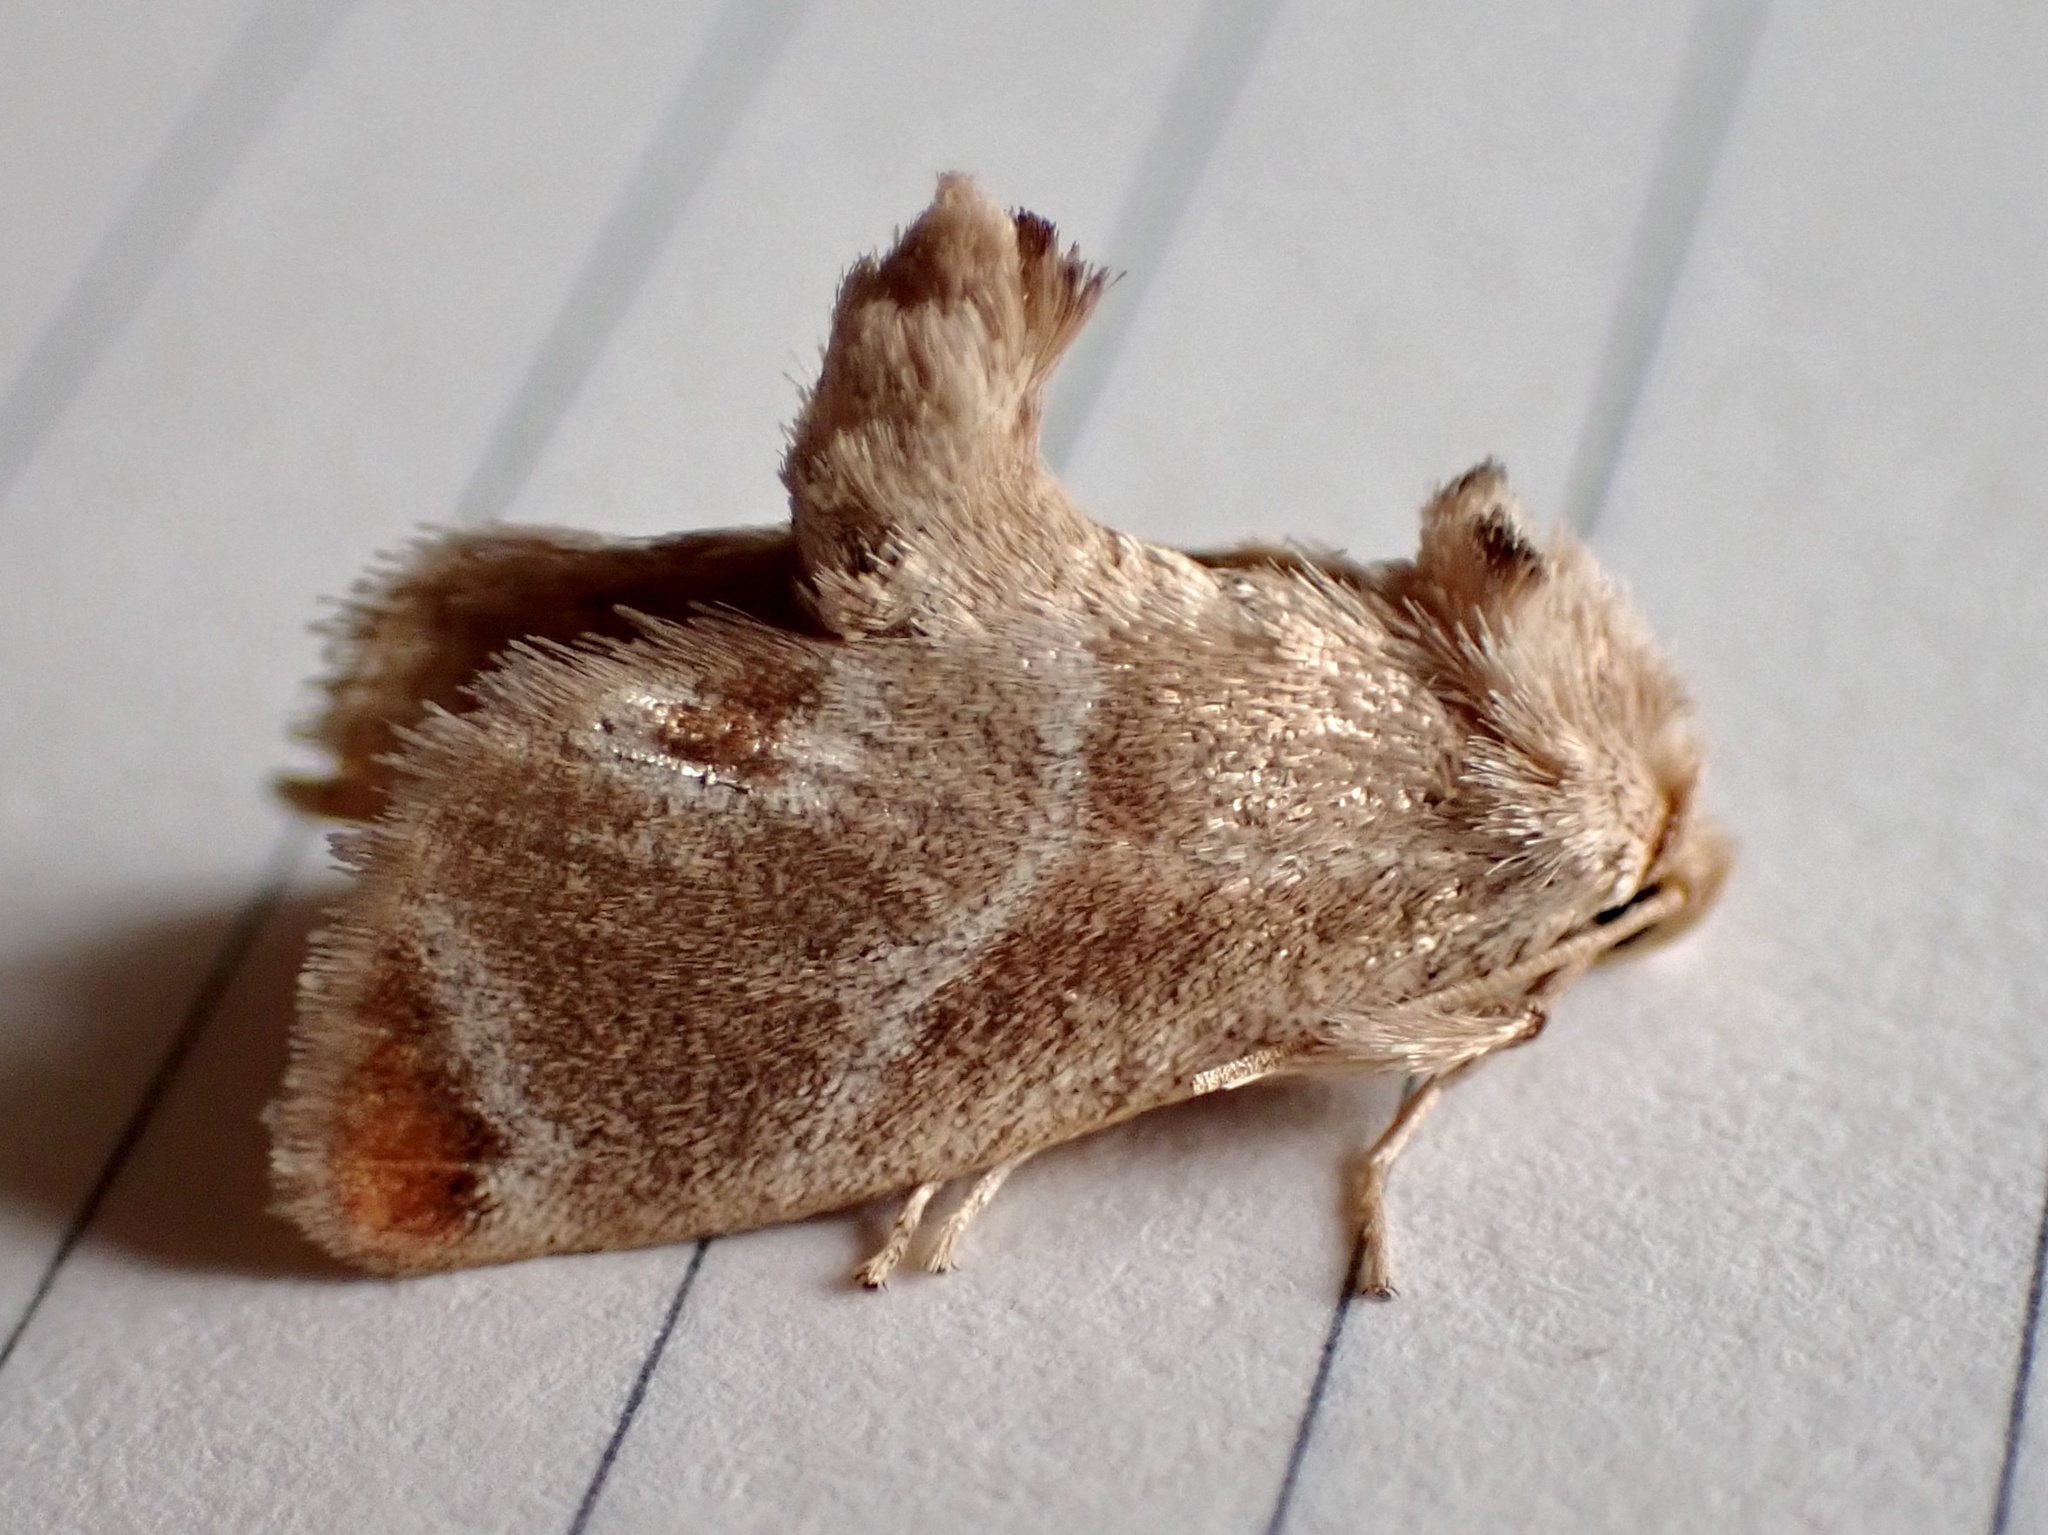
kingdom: Animalia
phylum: Arthropoda
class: Insecta
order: Lepidoptera
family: Limacodidae
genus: Apoda
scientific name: Apoda biguttata
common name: Shagreened slug moth
